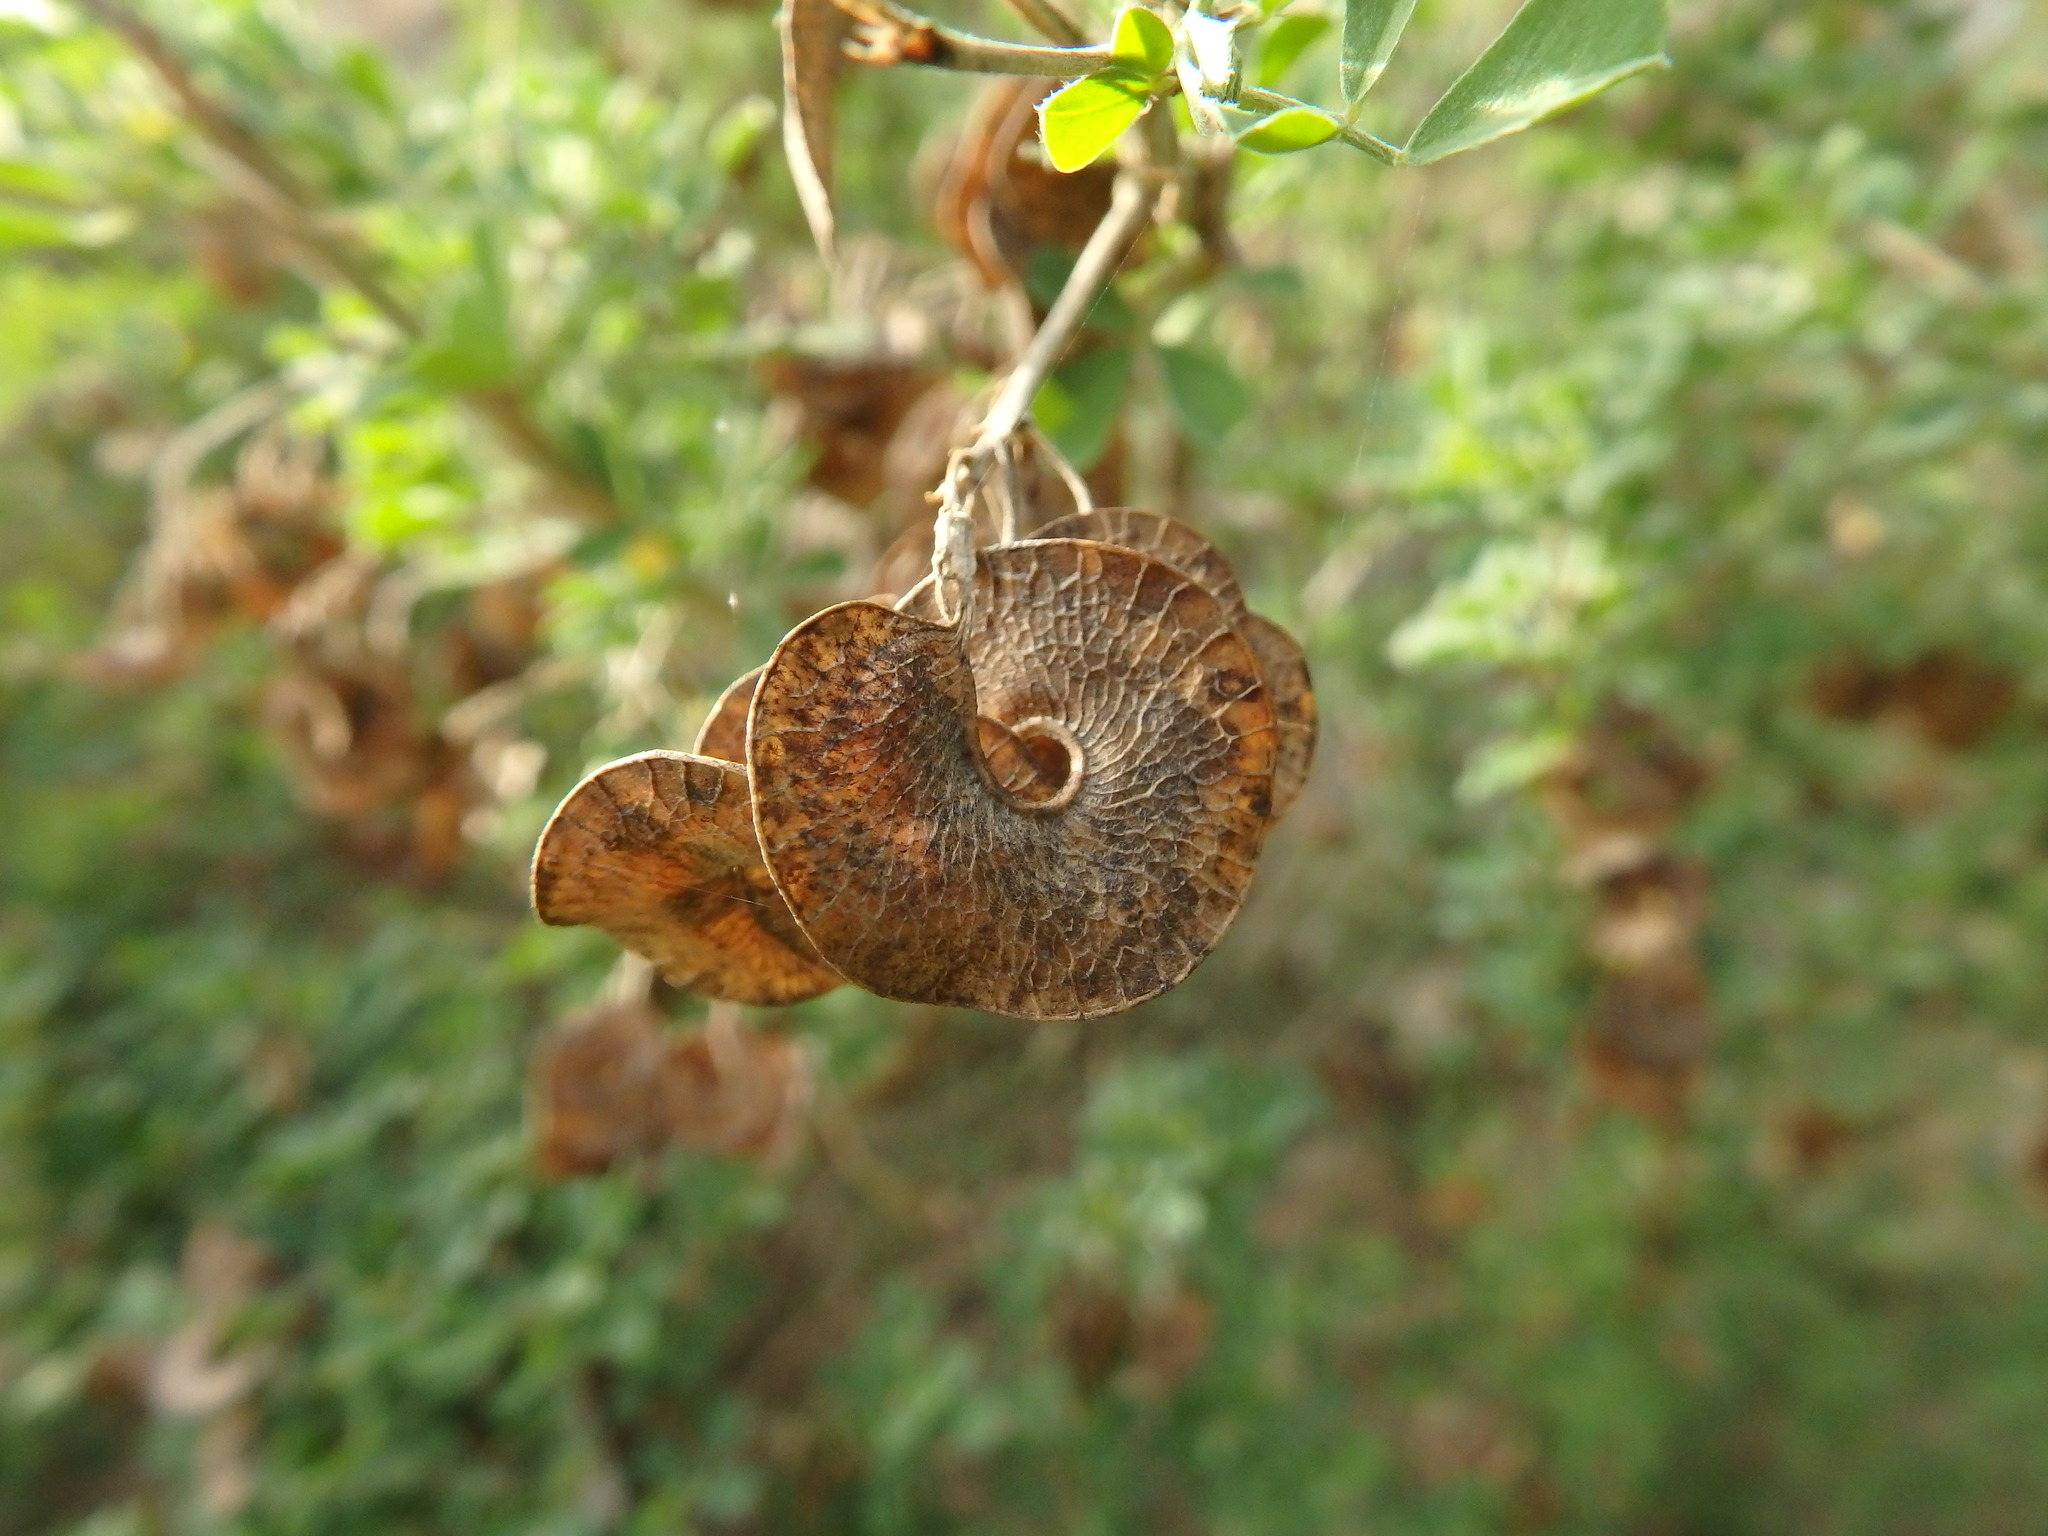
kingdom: Plantae
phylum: Tracheophyta
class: Magnoliopsida
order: Fabales
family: Fabaceae
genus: Medicago
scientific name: Medicago arborea
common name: Moon trefoil
